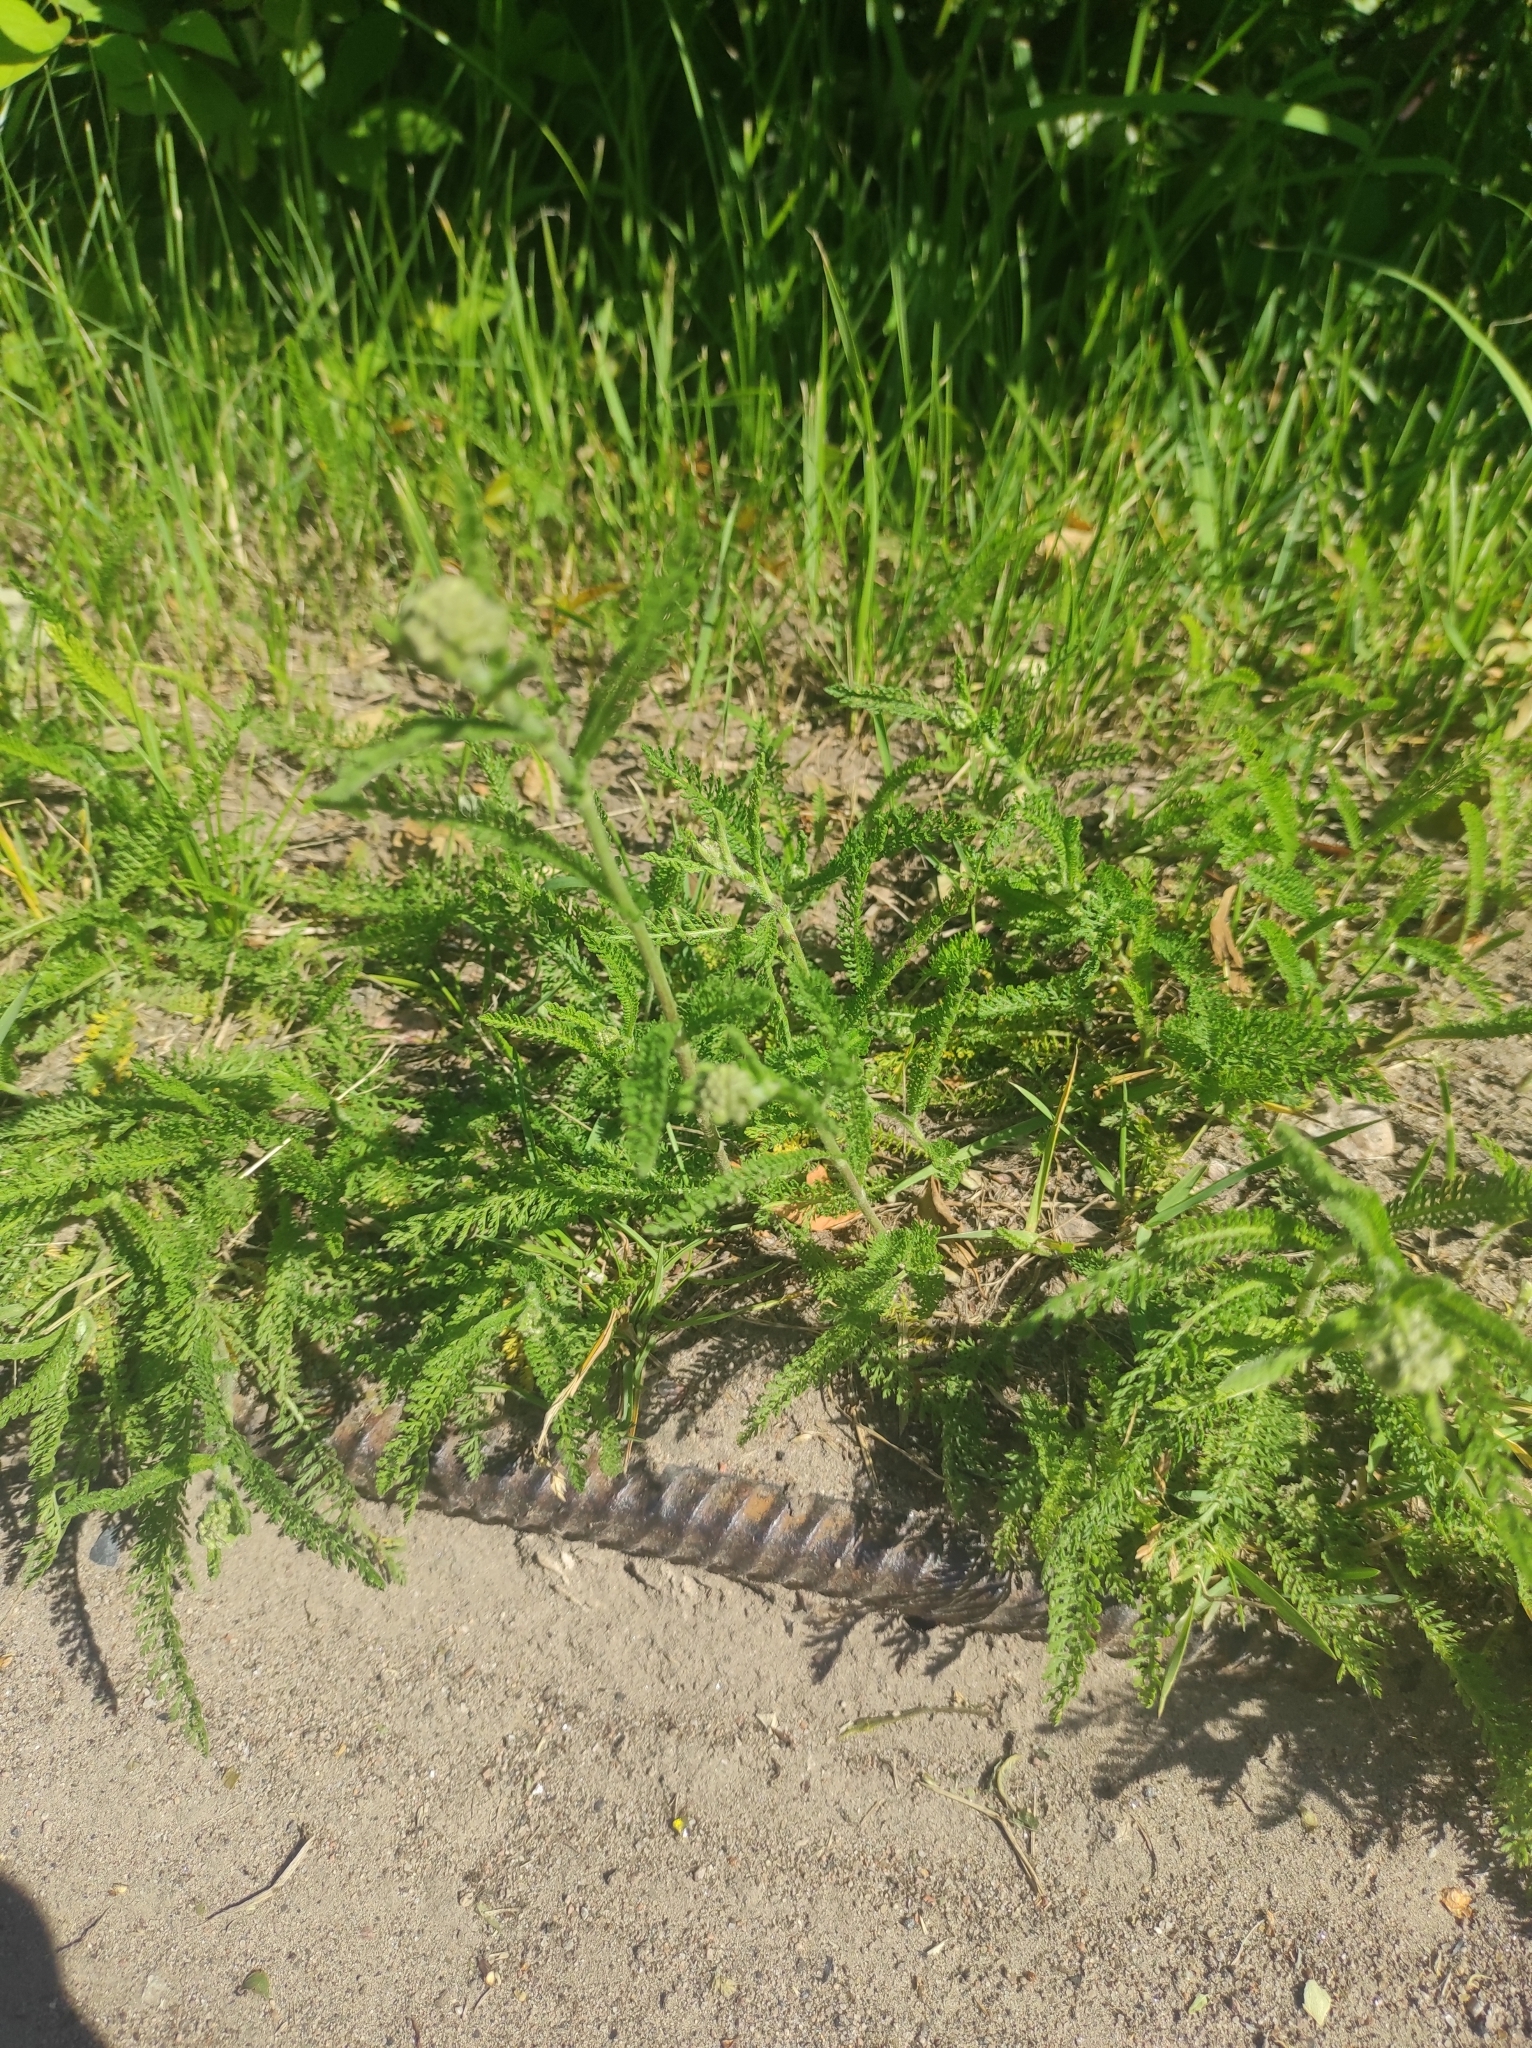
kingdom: Plantae
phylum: Tracheophyta
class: Magnoliopsida
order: Asterales
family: Asteraceae
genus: Achillea
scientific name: Achillea millefolium
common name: Yarrow
